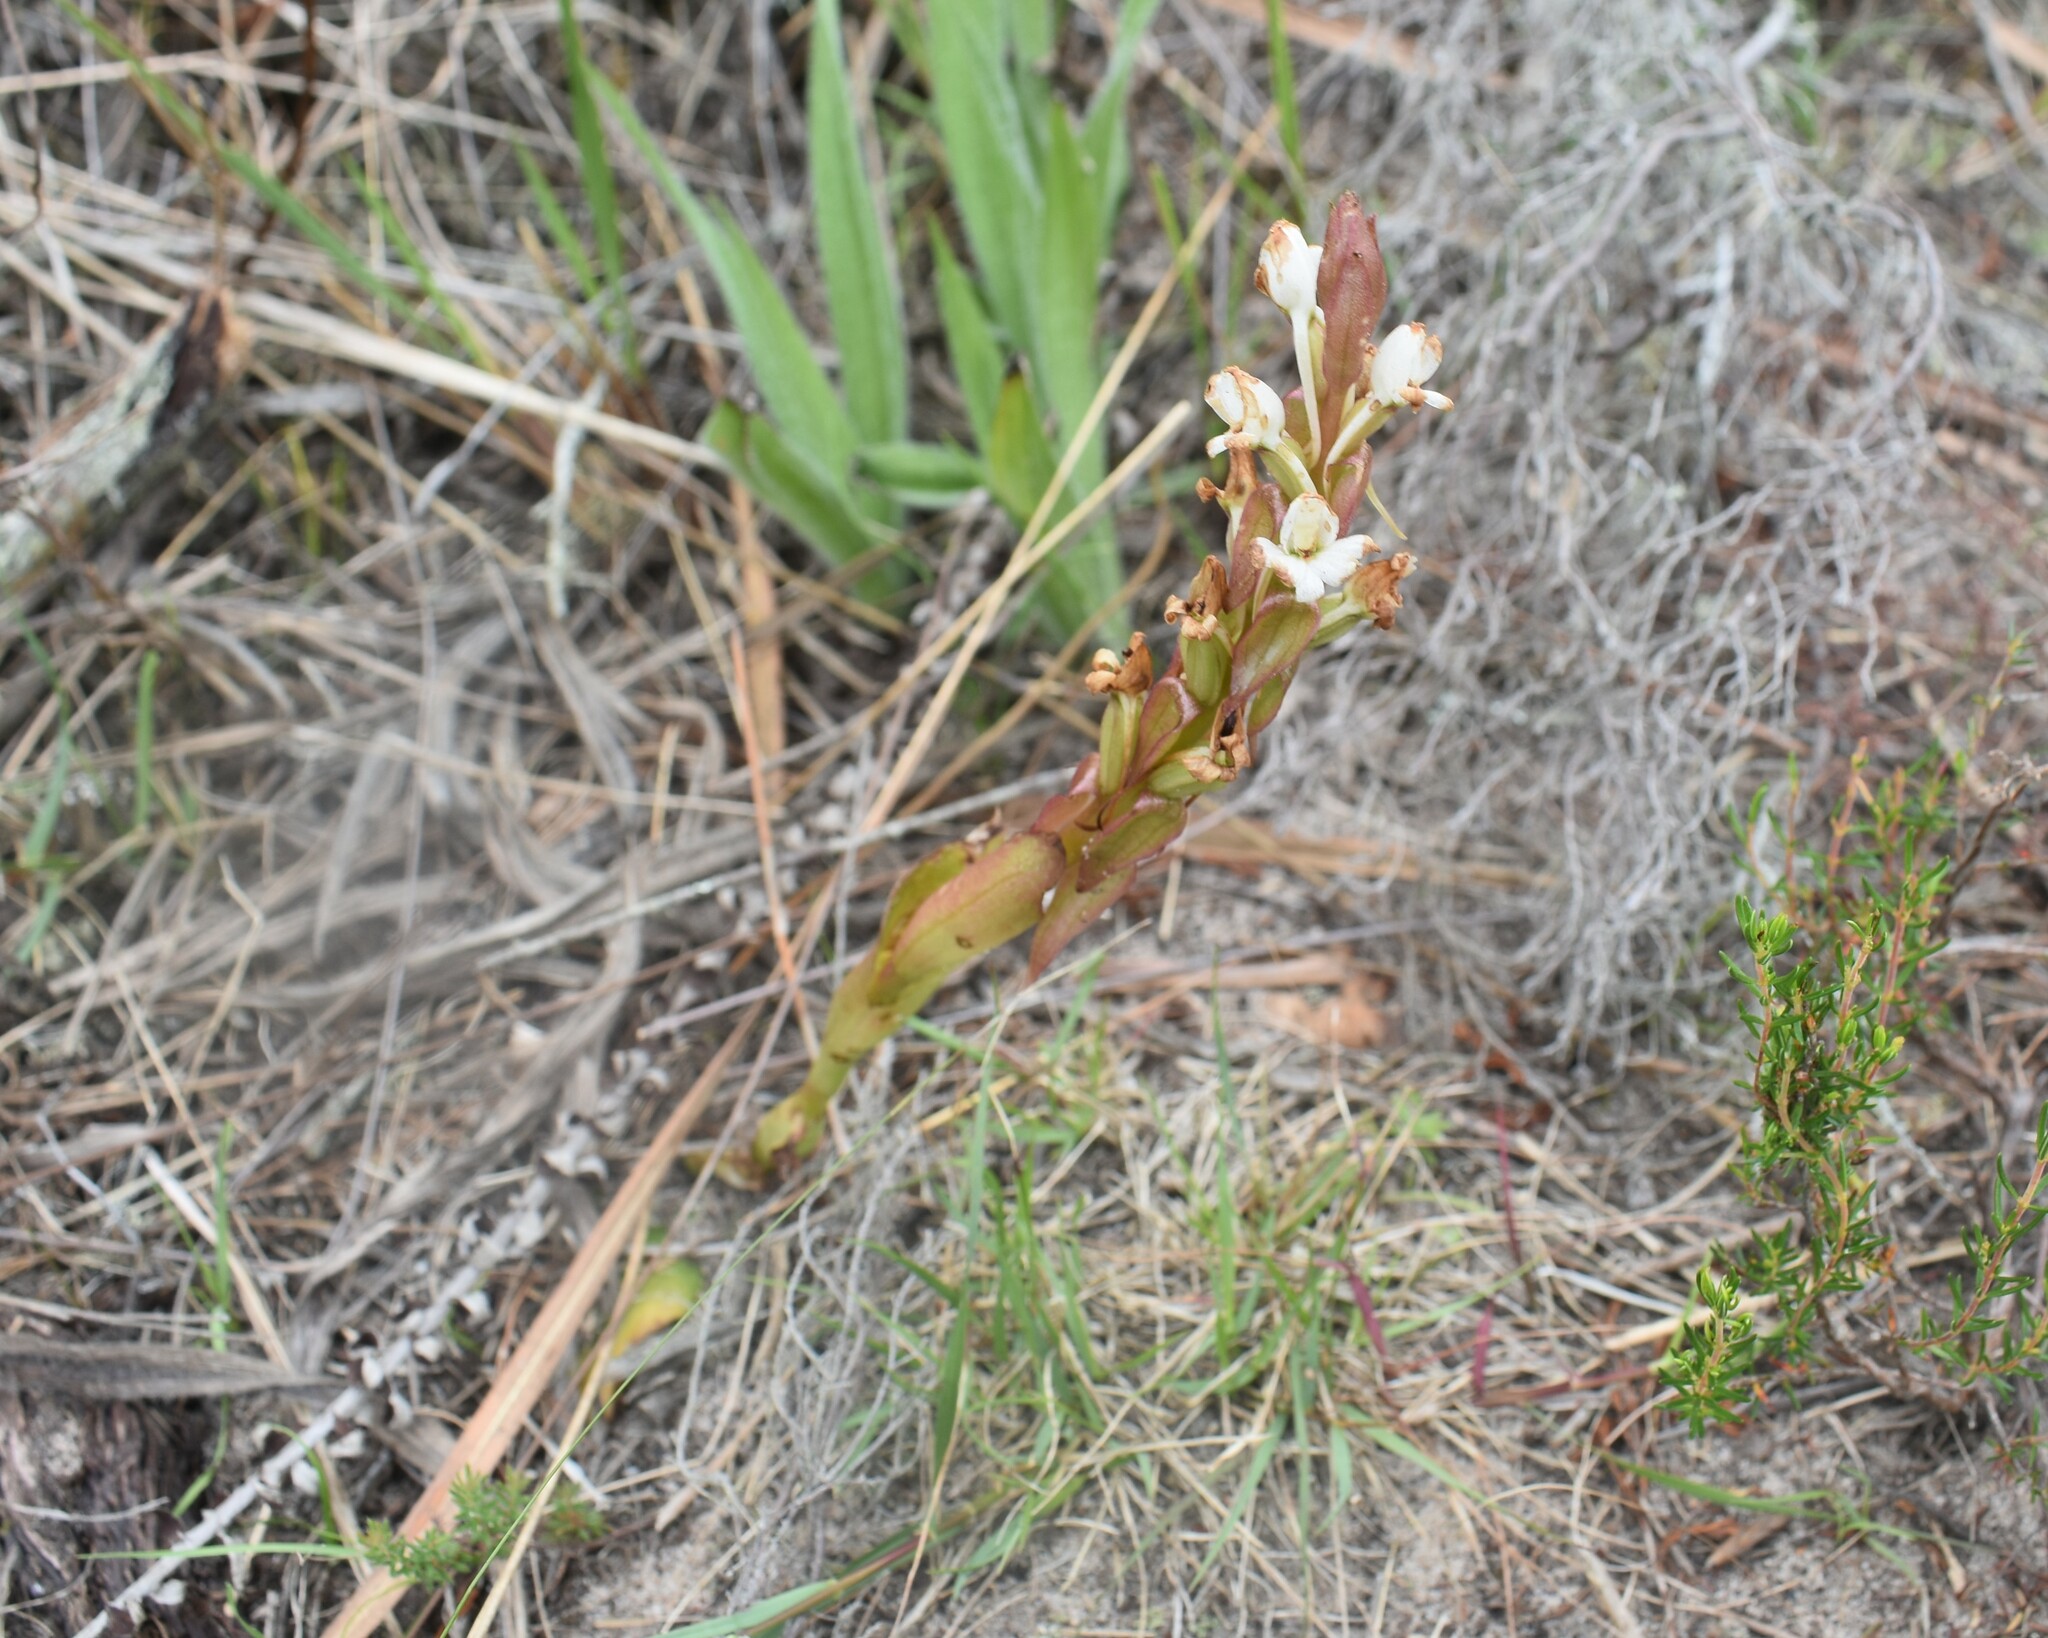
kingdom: Plantae
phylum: Tracheophyta
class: Liliopsida
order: Asparagales
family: Orchidaceae
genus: Satyrium
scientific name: Satyrium acuminatum
